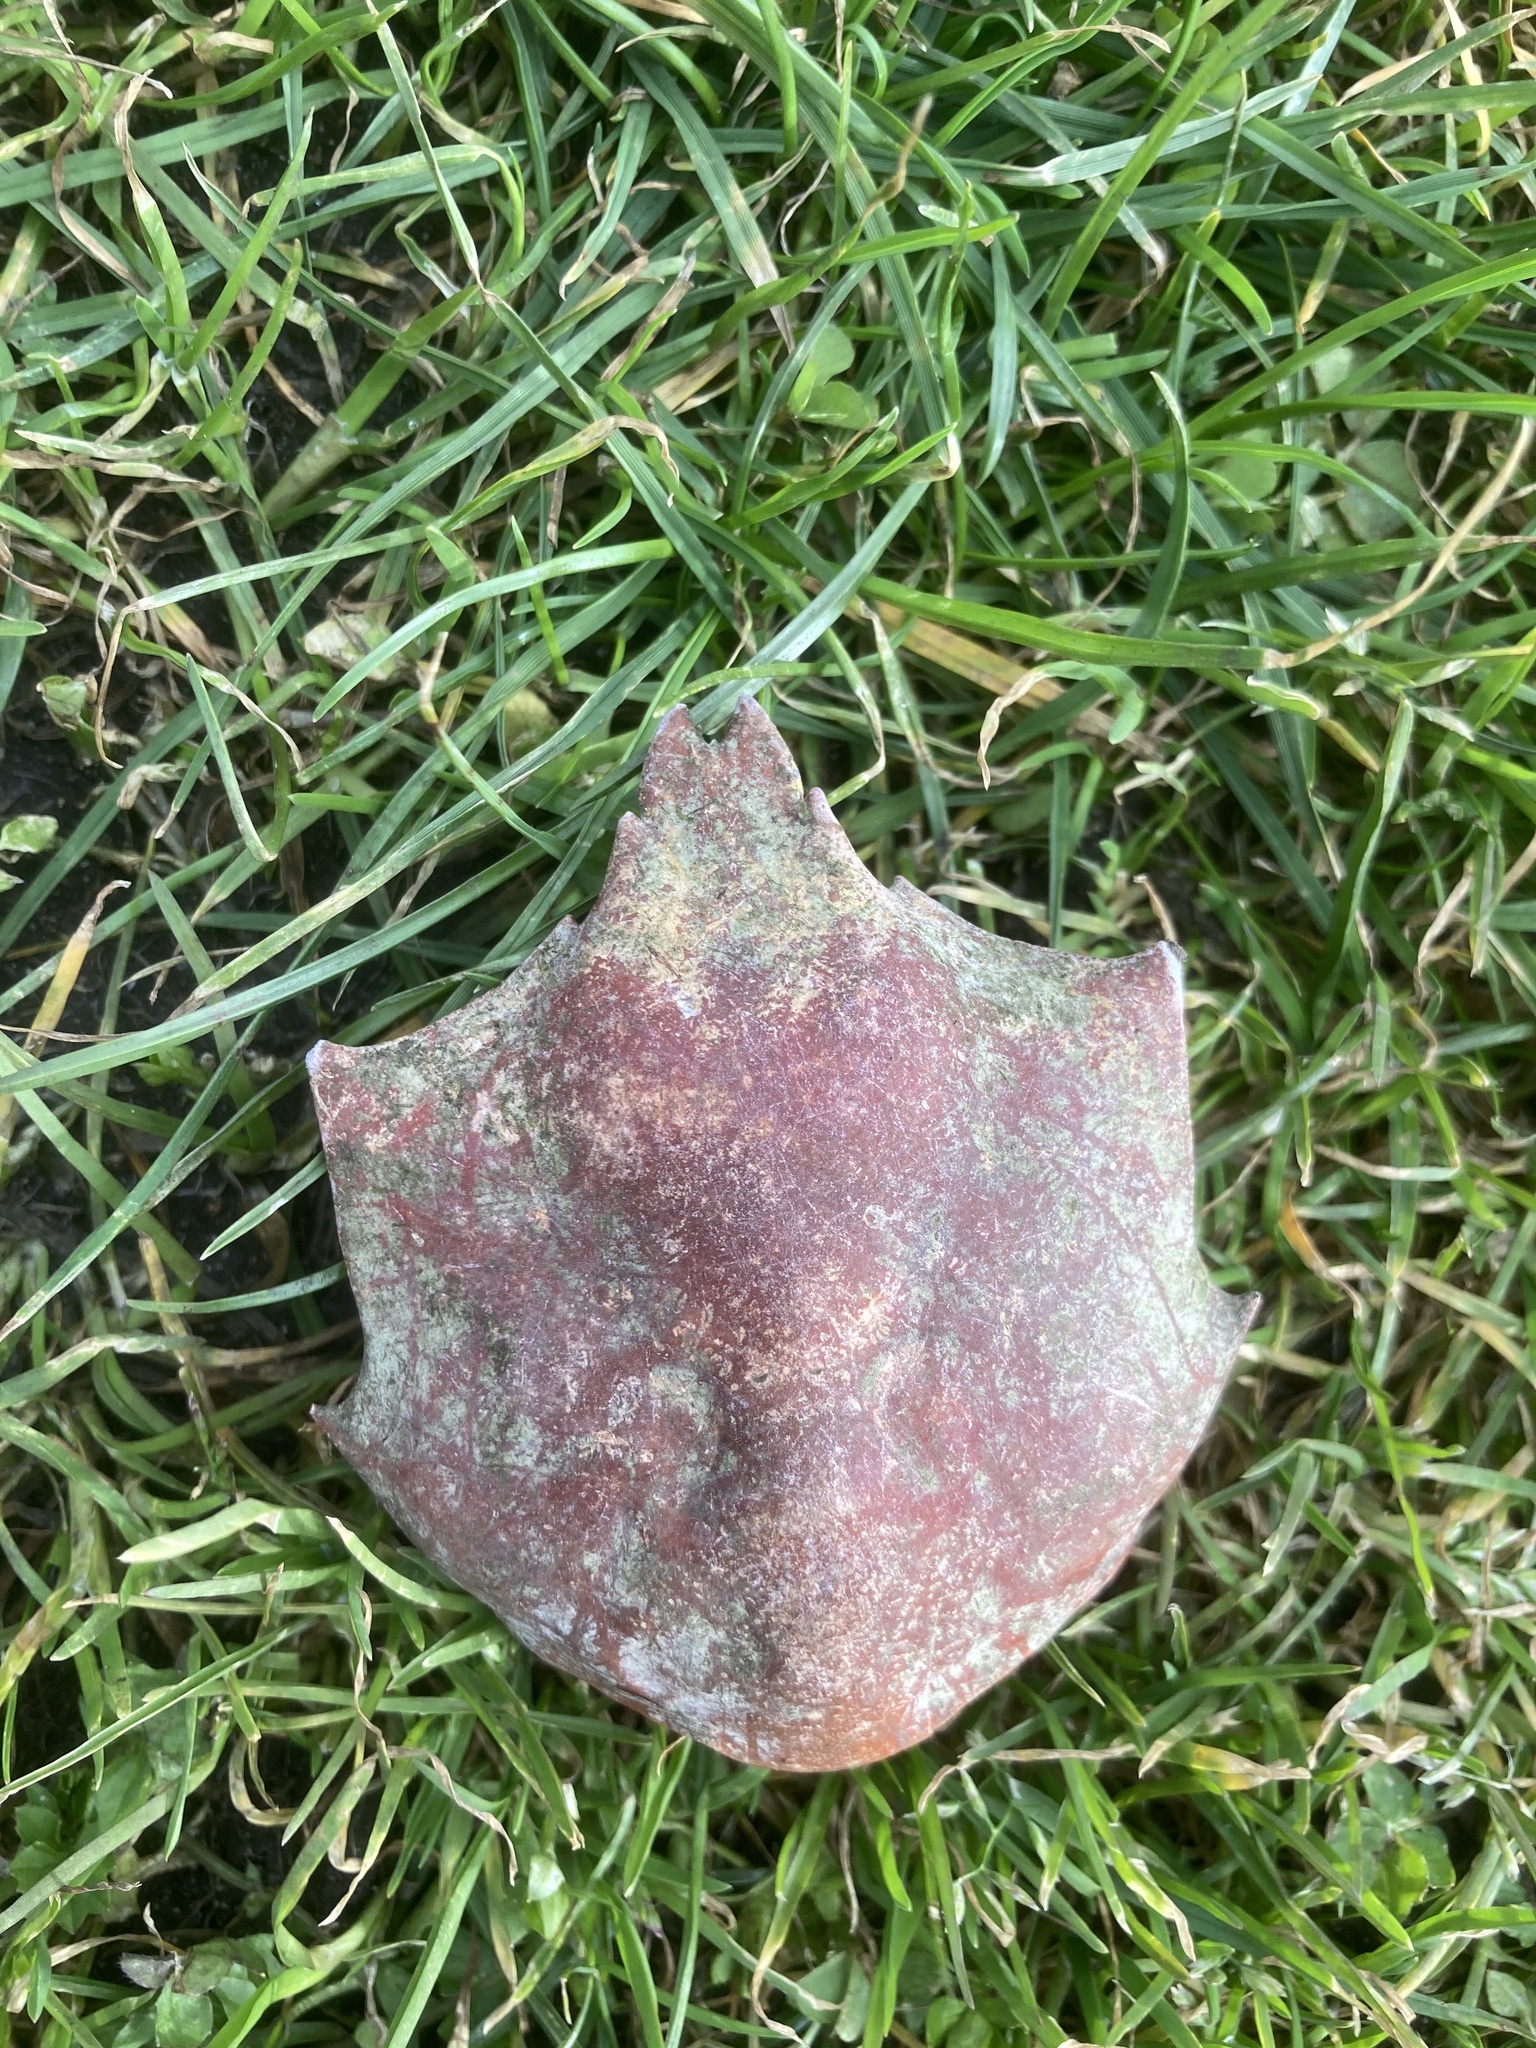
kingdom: Animalia
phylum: Arthropoda
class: Malacostraca
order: Decapoda
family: Epialtidae
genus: Pugettia
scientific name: Pugettia producta
